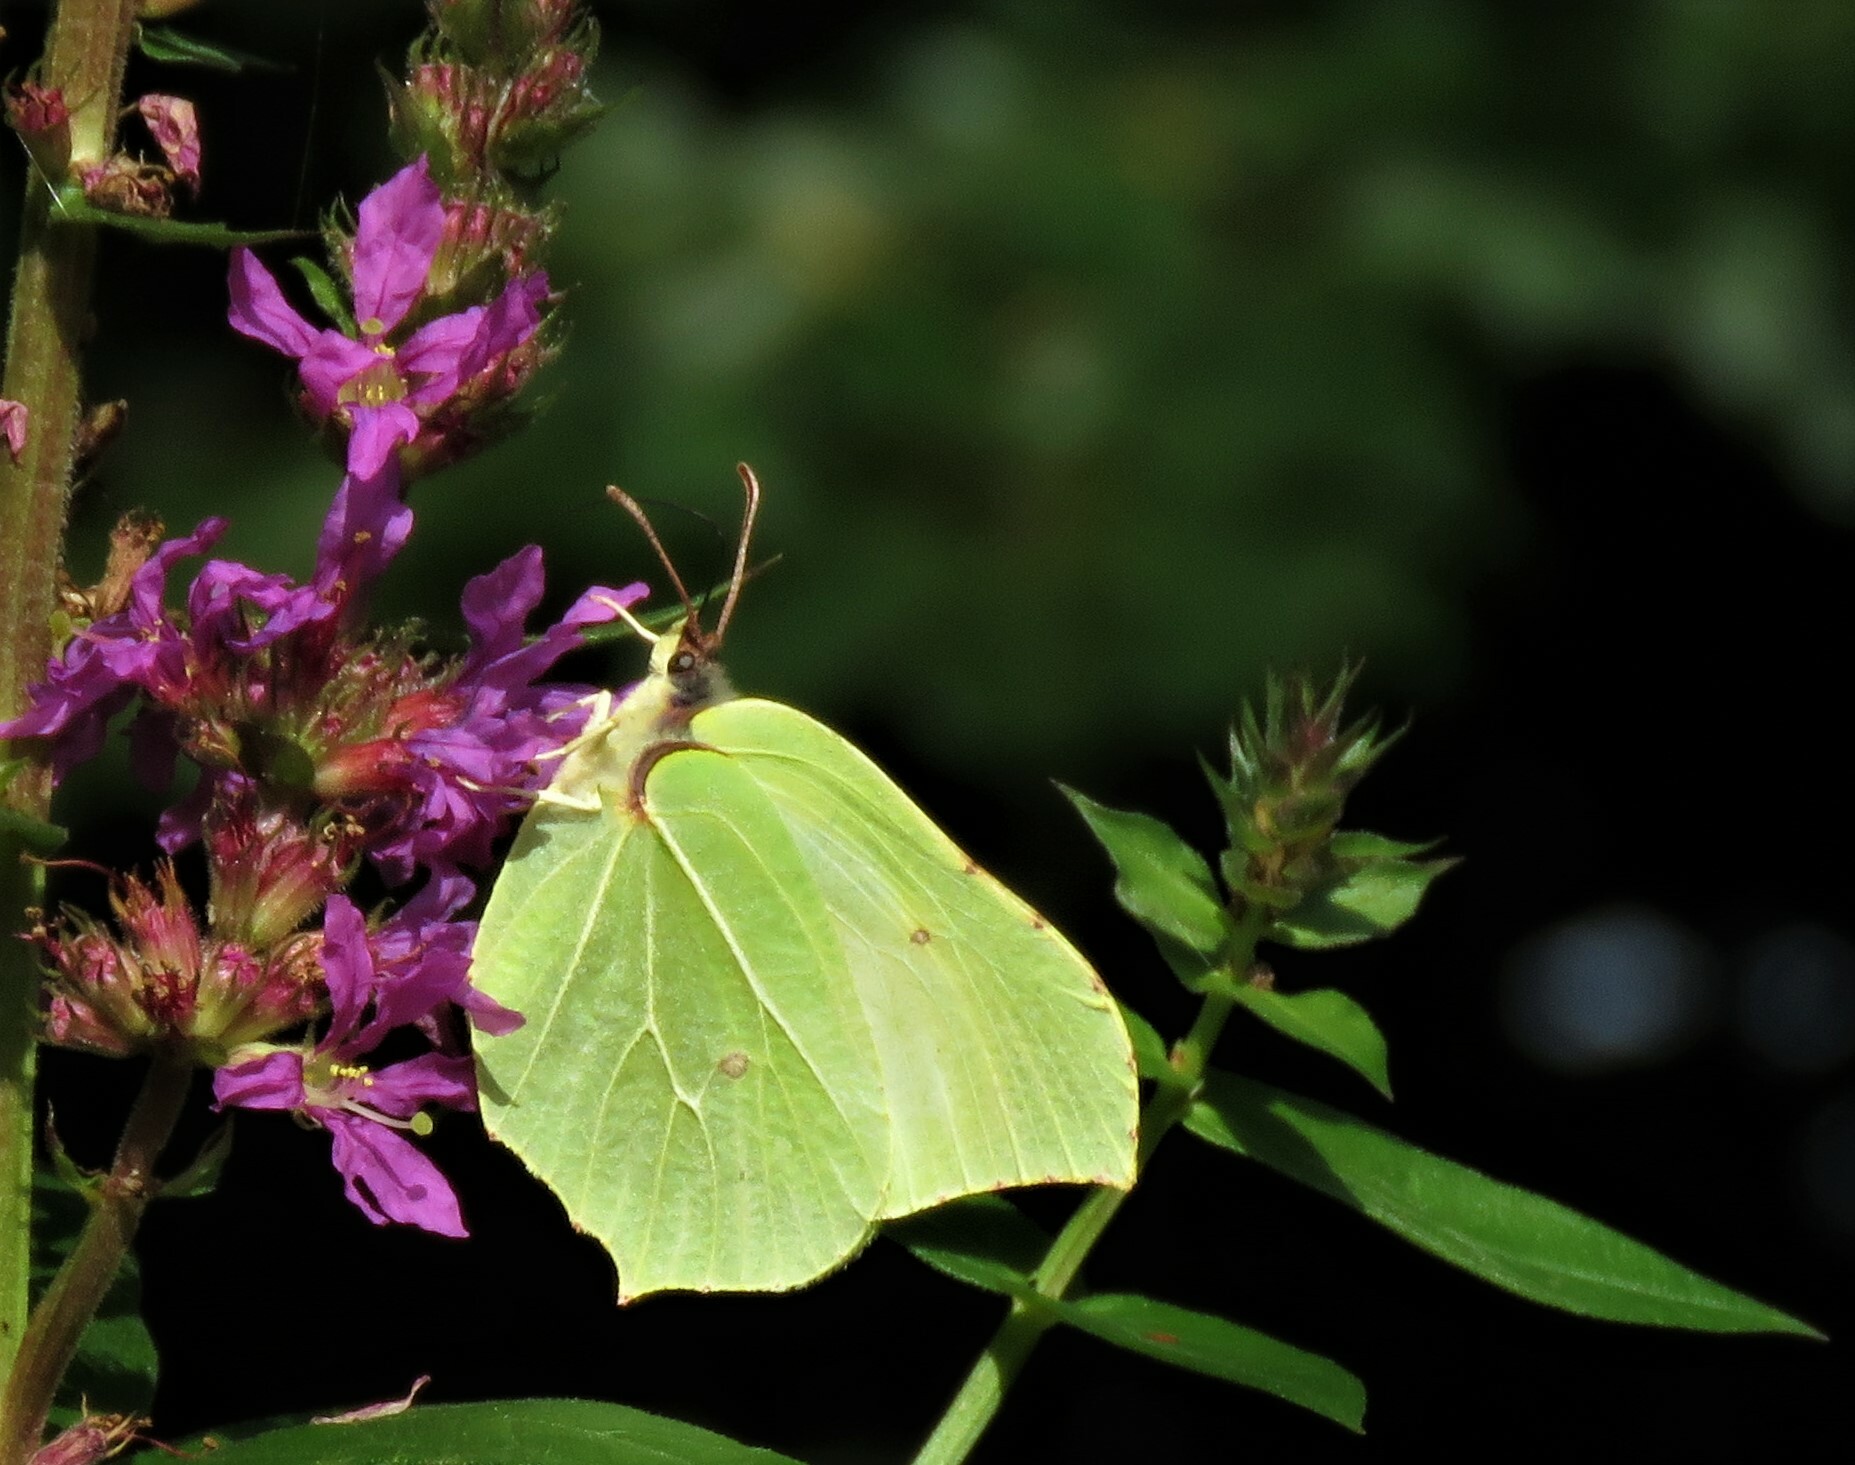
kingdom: Animalia
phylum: Arthropoda
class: Insecta
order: Lepidoptera
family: Pieridae
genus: Gonepteryx
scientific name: Gonepteryx rhamni
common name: Brimstone
